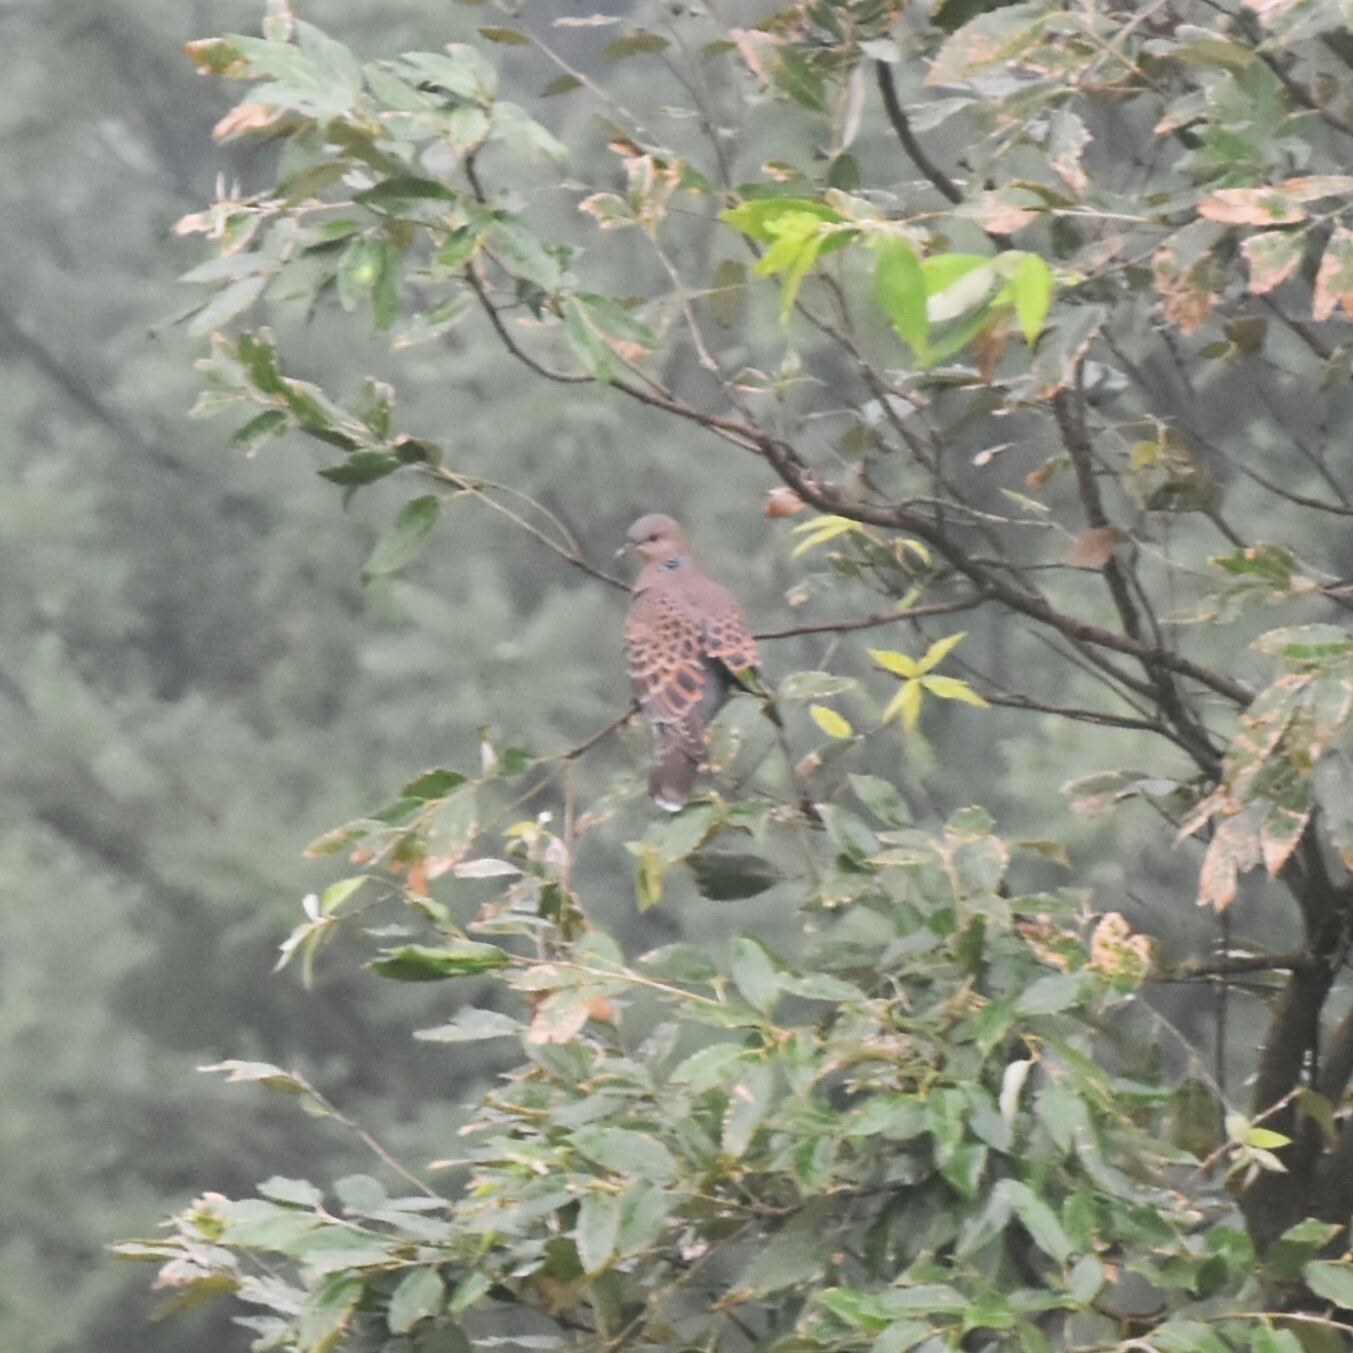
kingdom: Animalia
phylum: Chordata
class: Aves
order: Columbiformes
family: Columbidae
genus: Streptopelia
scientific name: Streptopelia orientalis
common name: Oriental turtle dove
